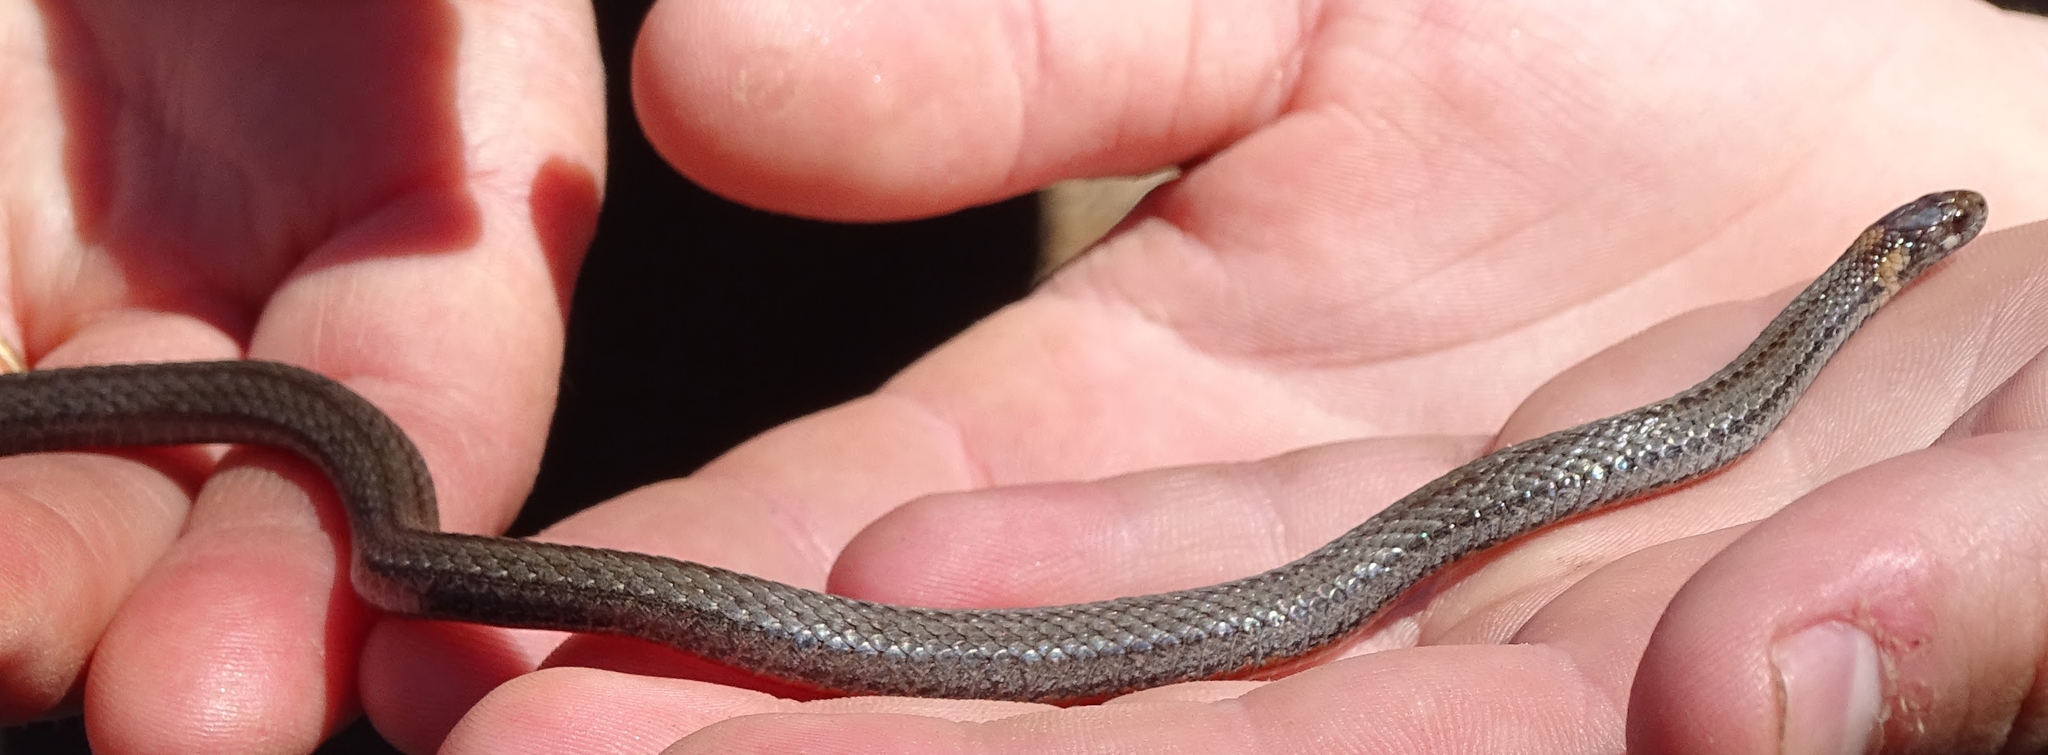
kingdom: Animalia
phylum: Chordata
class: Squamata
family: Colubridae
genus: Storeria
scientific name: Storeria occipitomaculata
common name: Redbelly snake
